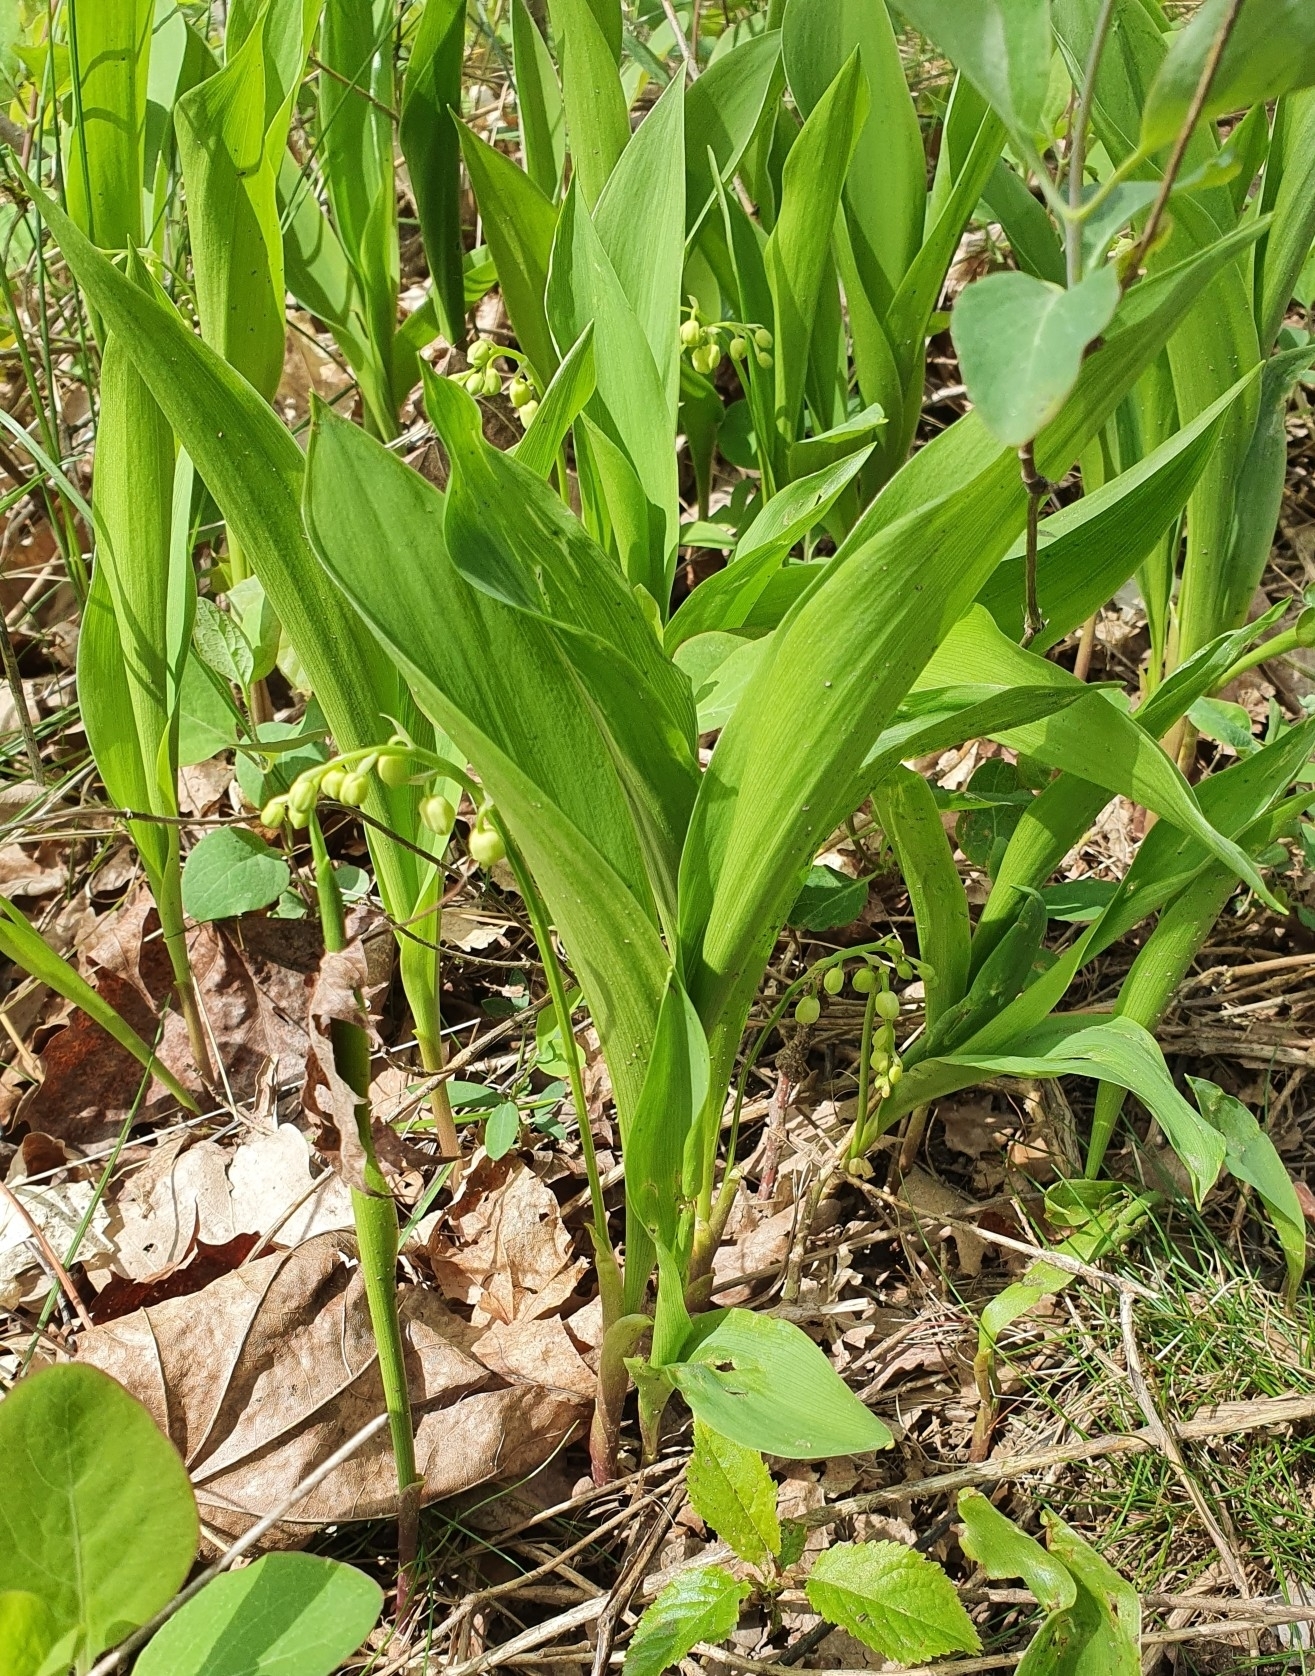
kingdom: Plantae
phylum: Tracheophyta
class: Liliopsida
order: Asparagales
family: Asparagaceae
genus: Convallaria
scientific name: Convallaria majalis
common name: Lily-of-the-valley
